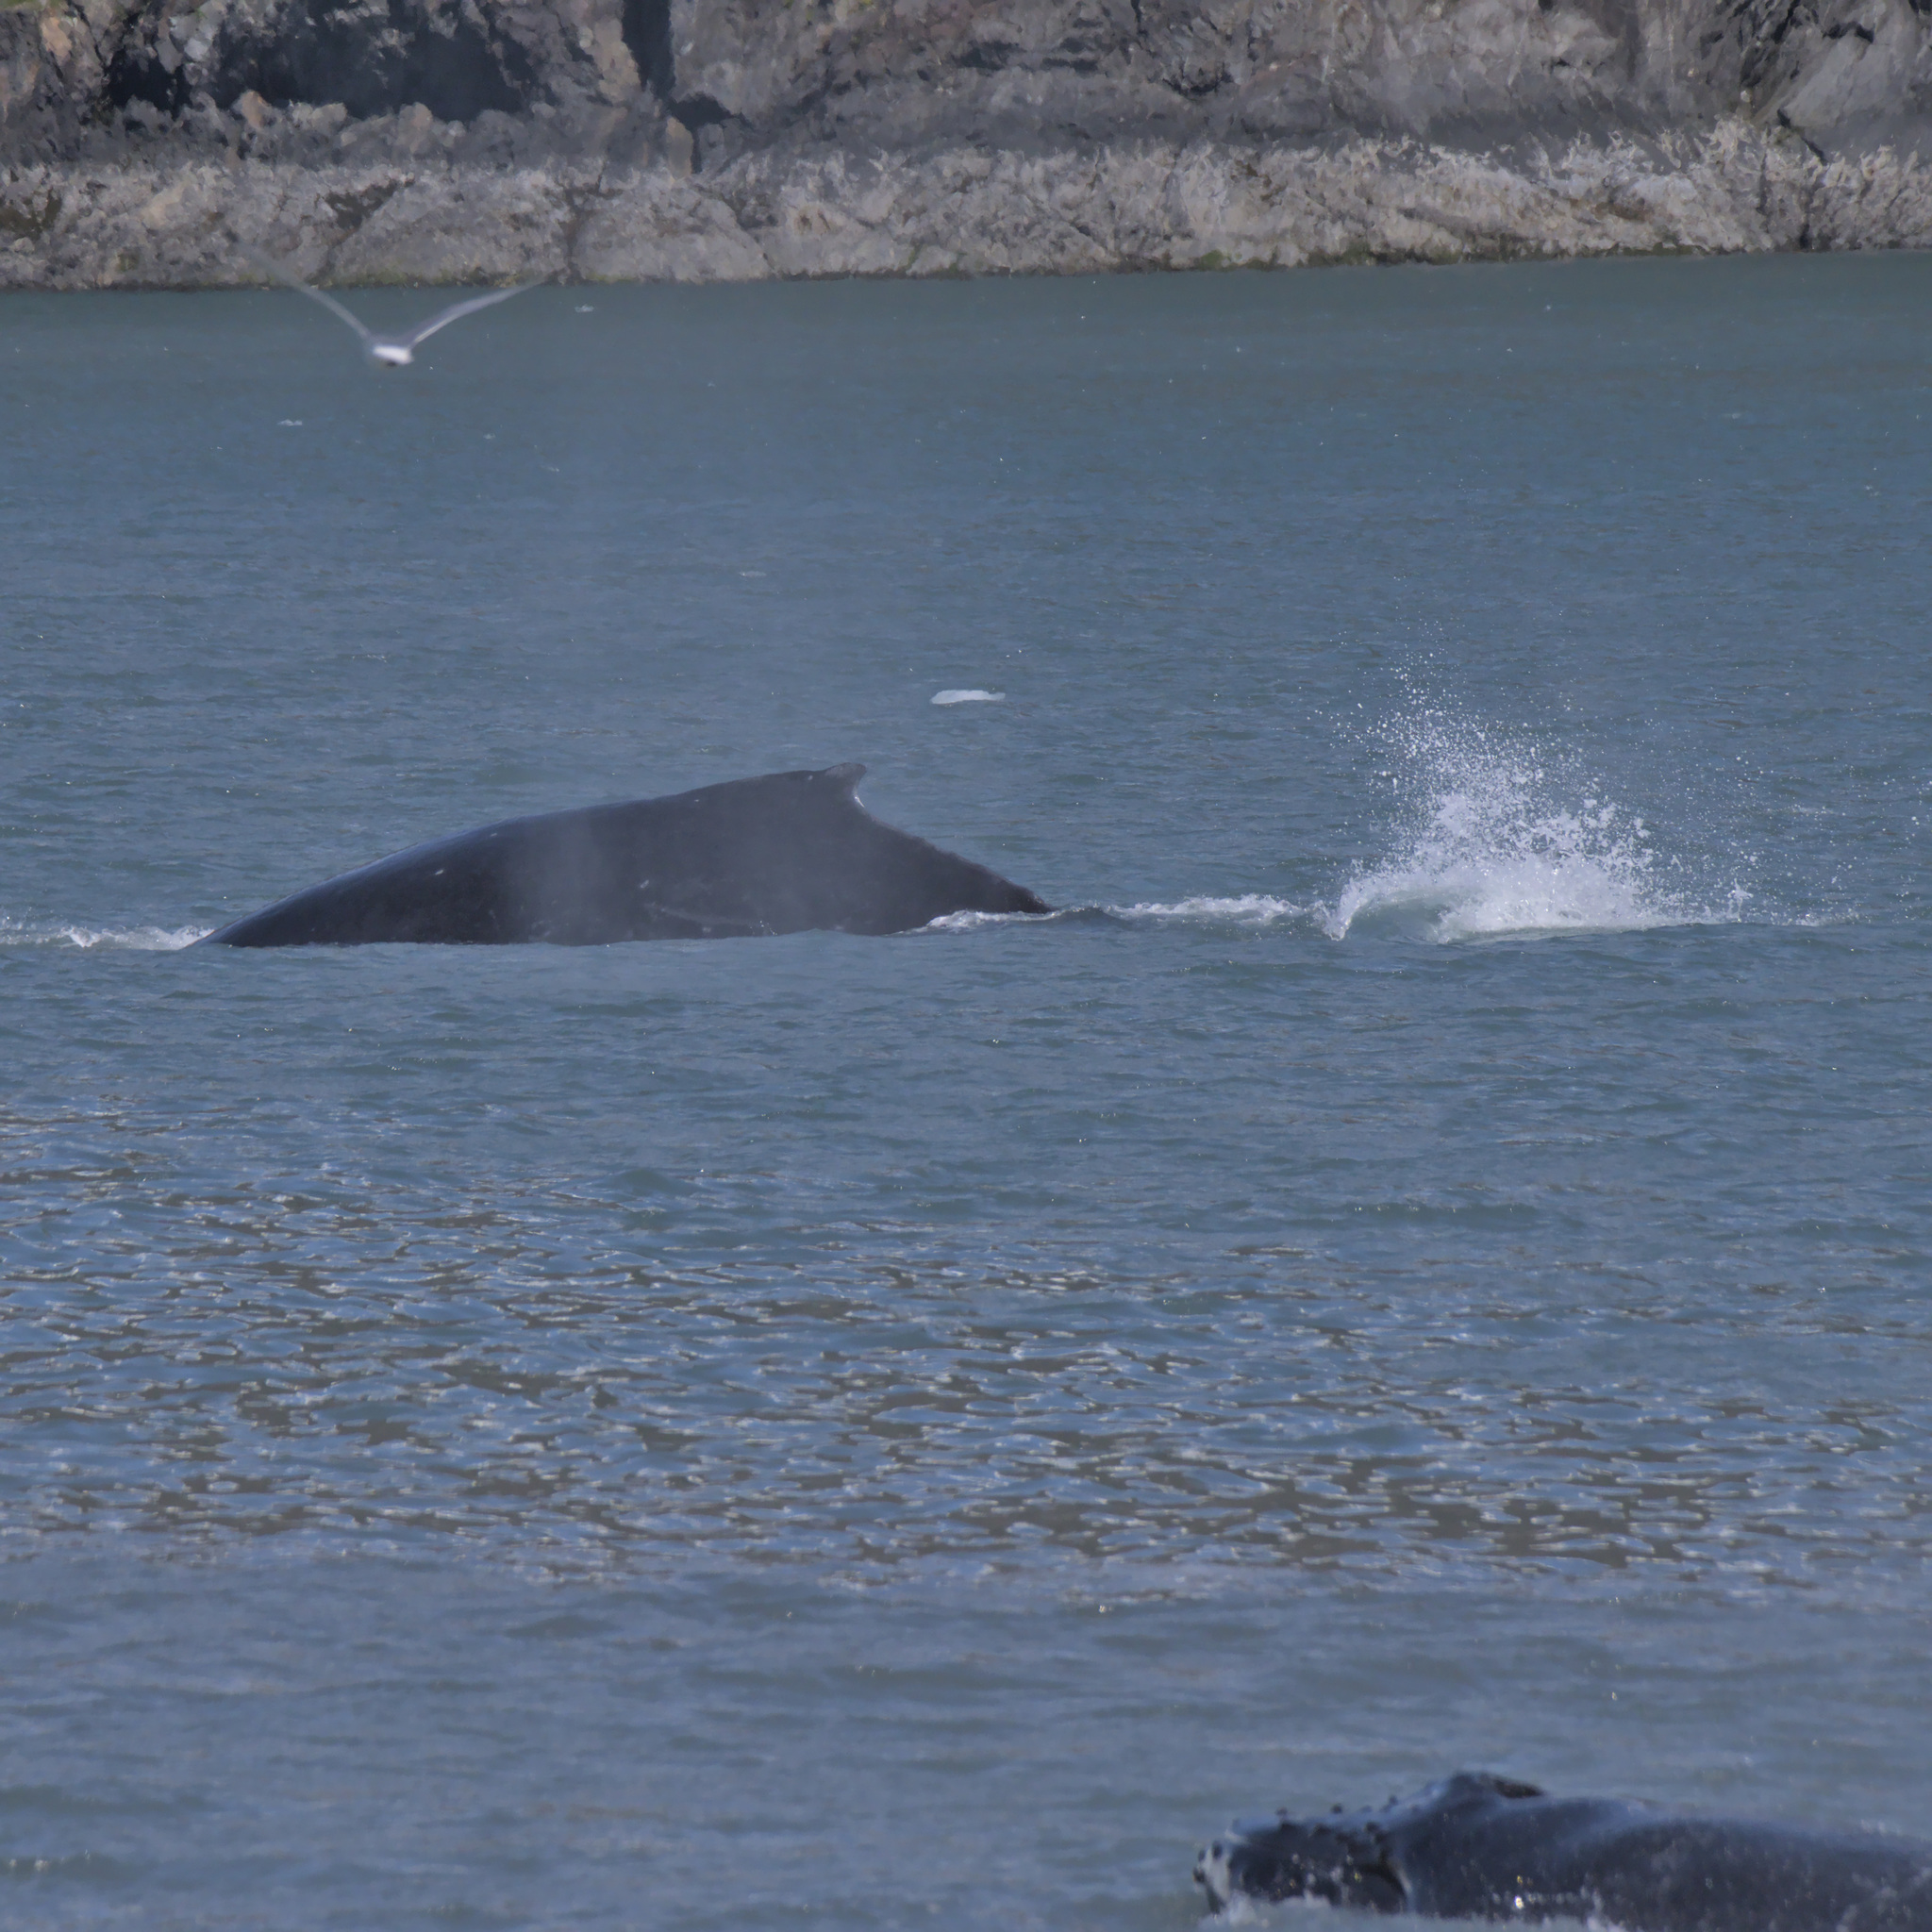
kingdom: Animalia
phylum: Chordata
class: Mammalia
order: Cetacea
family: Balaenopteridae
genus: Megaptera
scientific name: Megaptera novaeangliae
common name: Humpback whale
